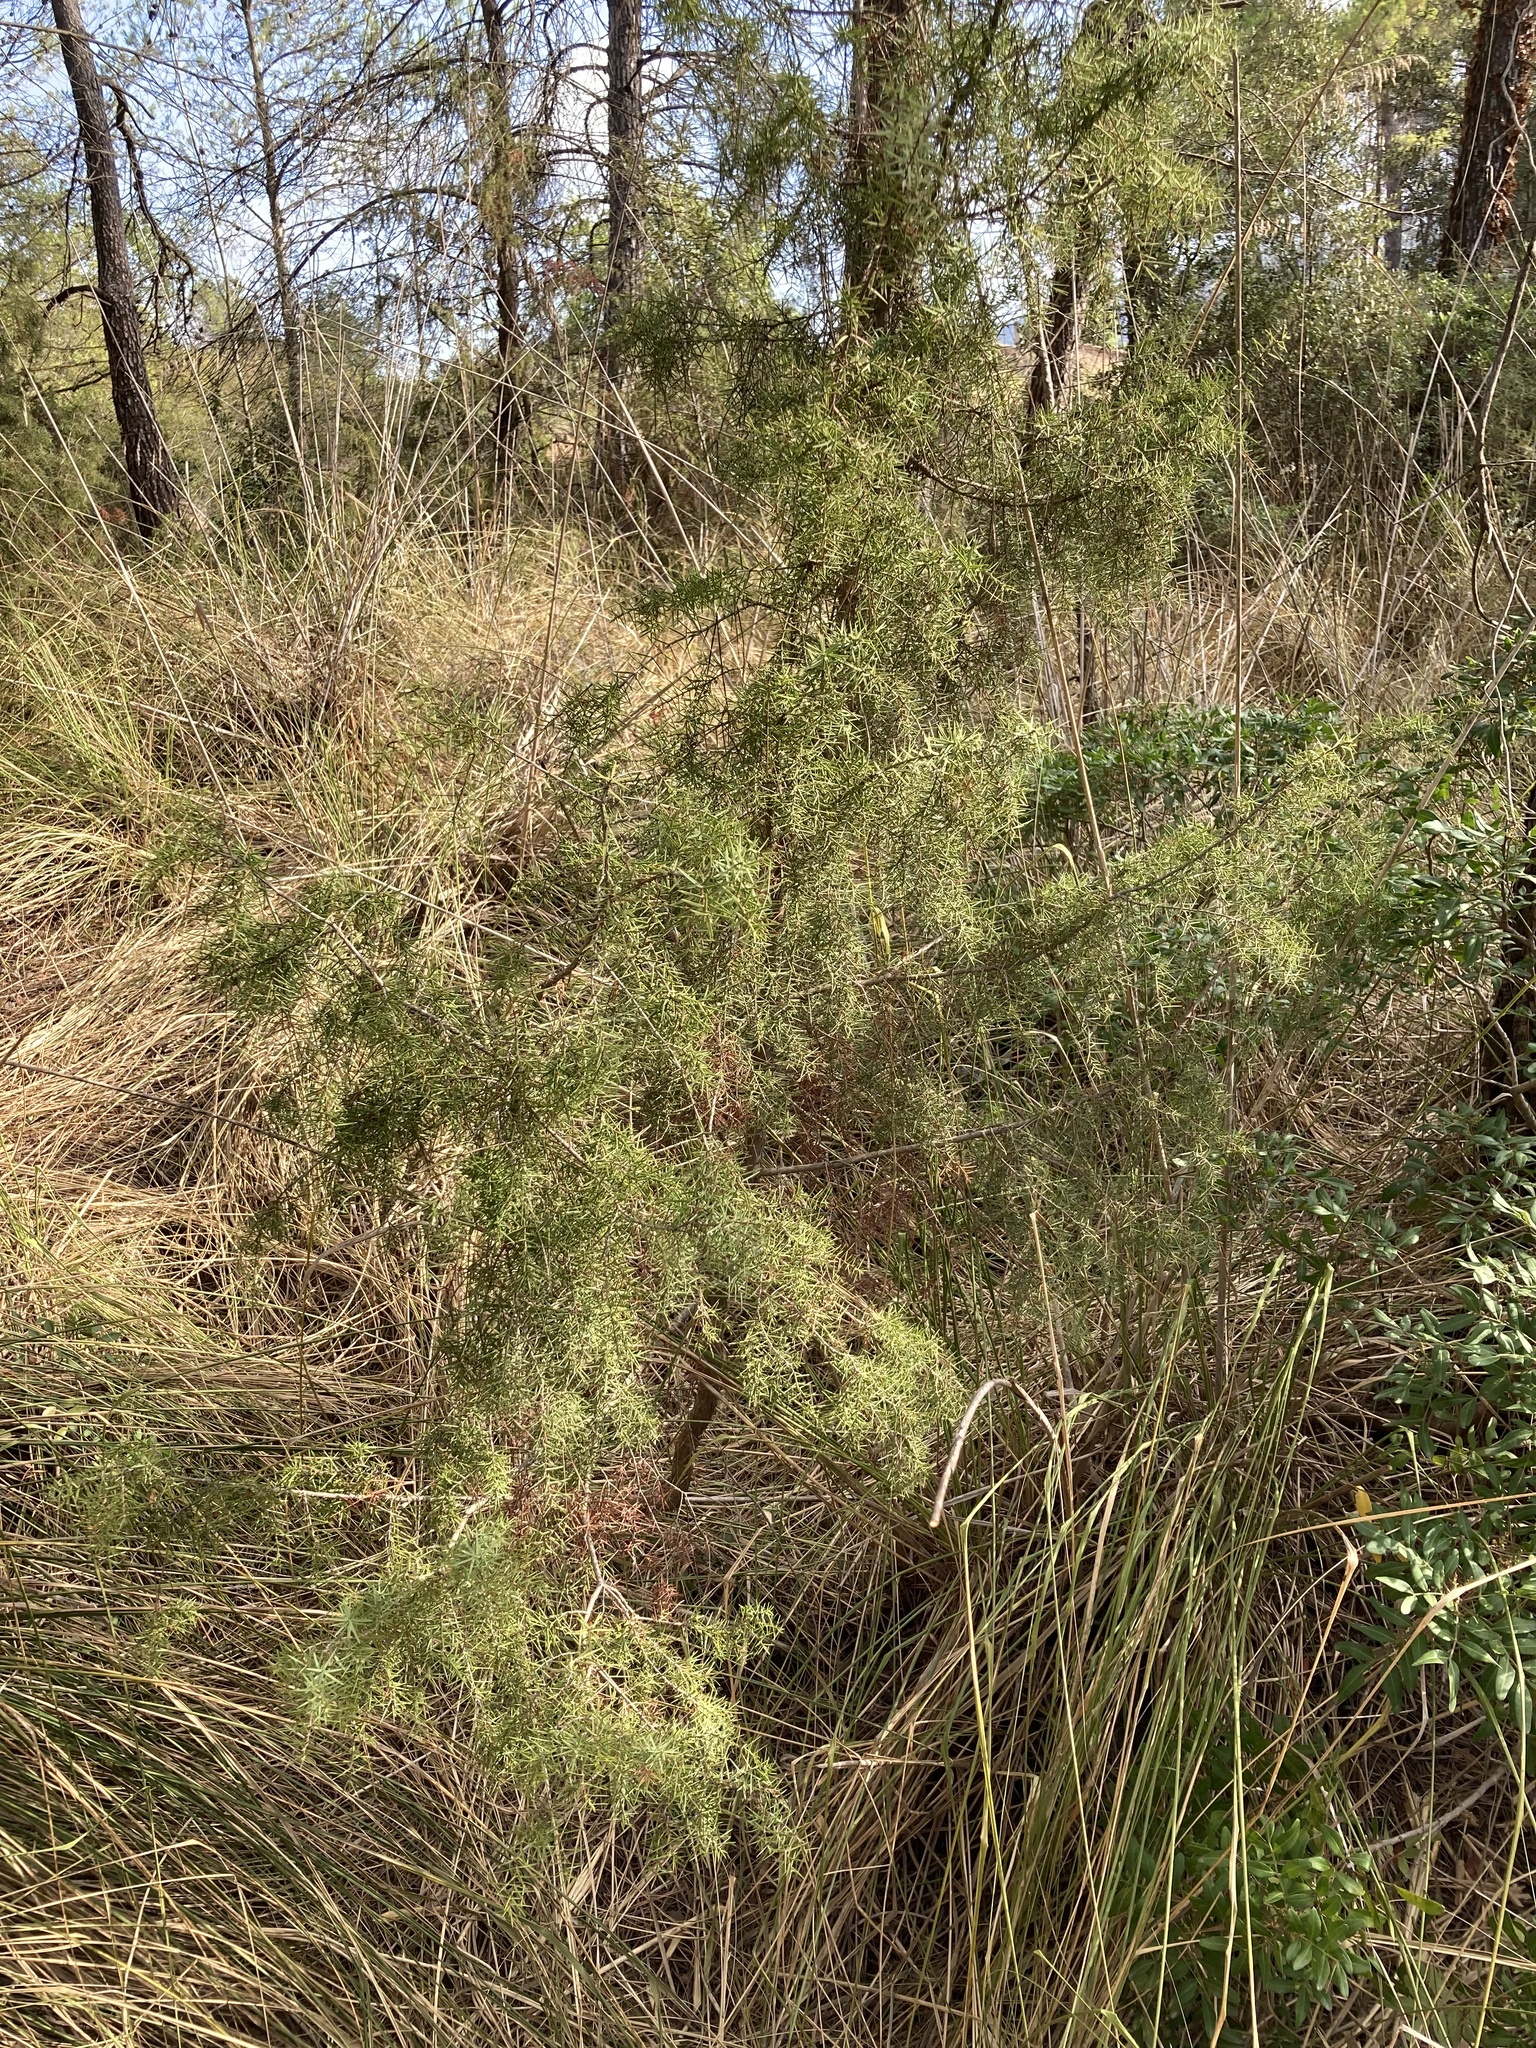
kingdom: Plantae
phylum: Tracheophyta
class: Pinopsida
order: Pinales
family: Cupressaceae
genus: Juniperus
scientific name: Juniperus oxycedrus
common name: Prickly juniper
